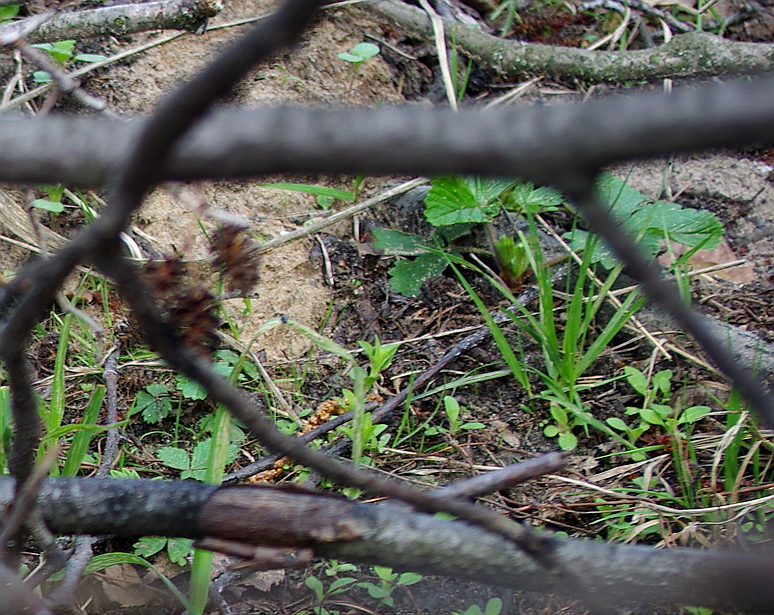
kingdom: Plantae
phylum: Tracheophyta
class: Magnoliopsida
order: Rosales
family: Rosaceae
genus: Fragaria
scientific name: Fragaria vesca
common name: Wild strawberry
